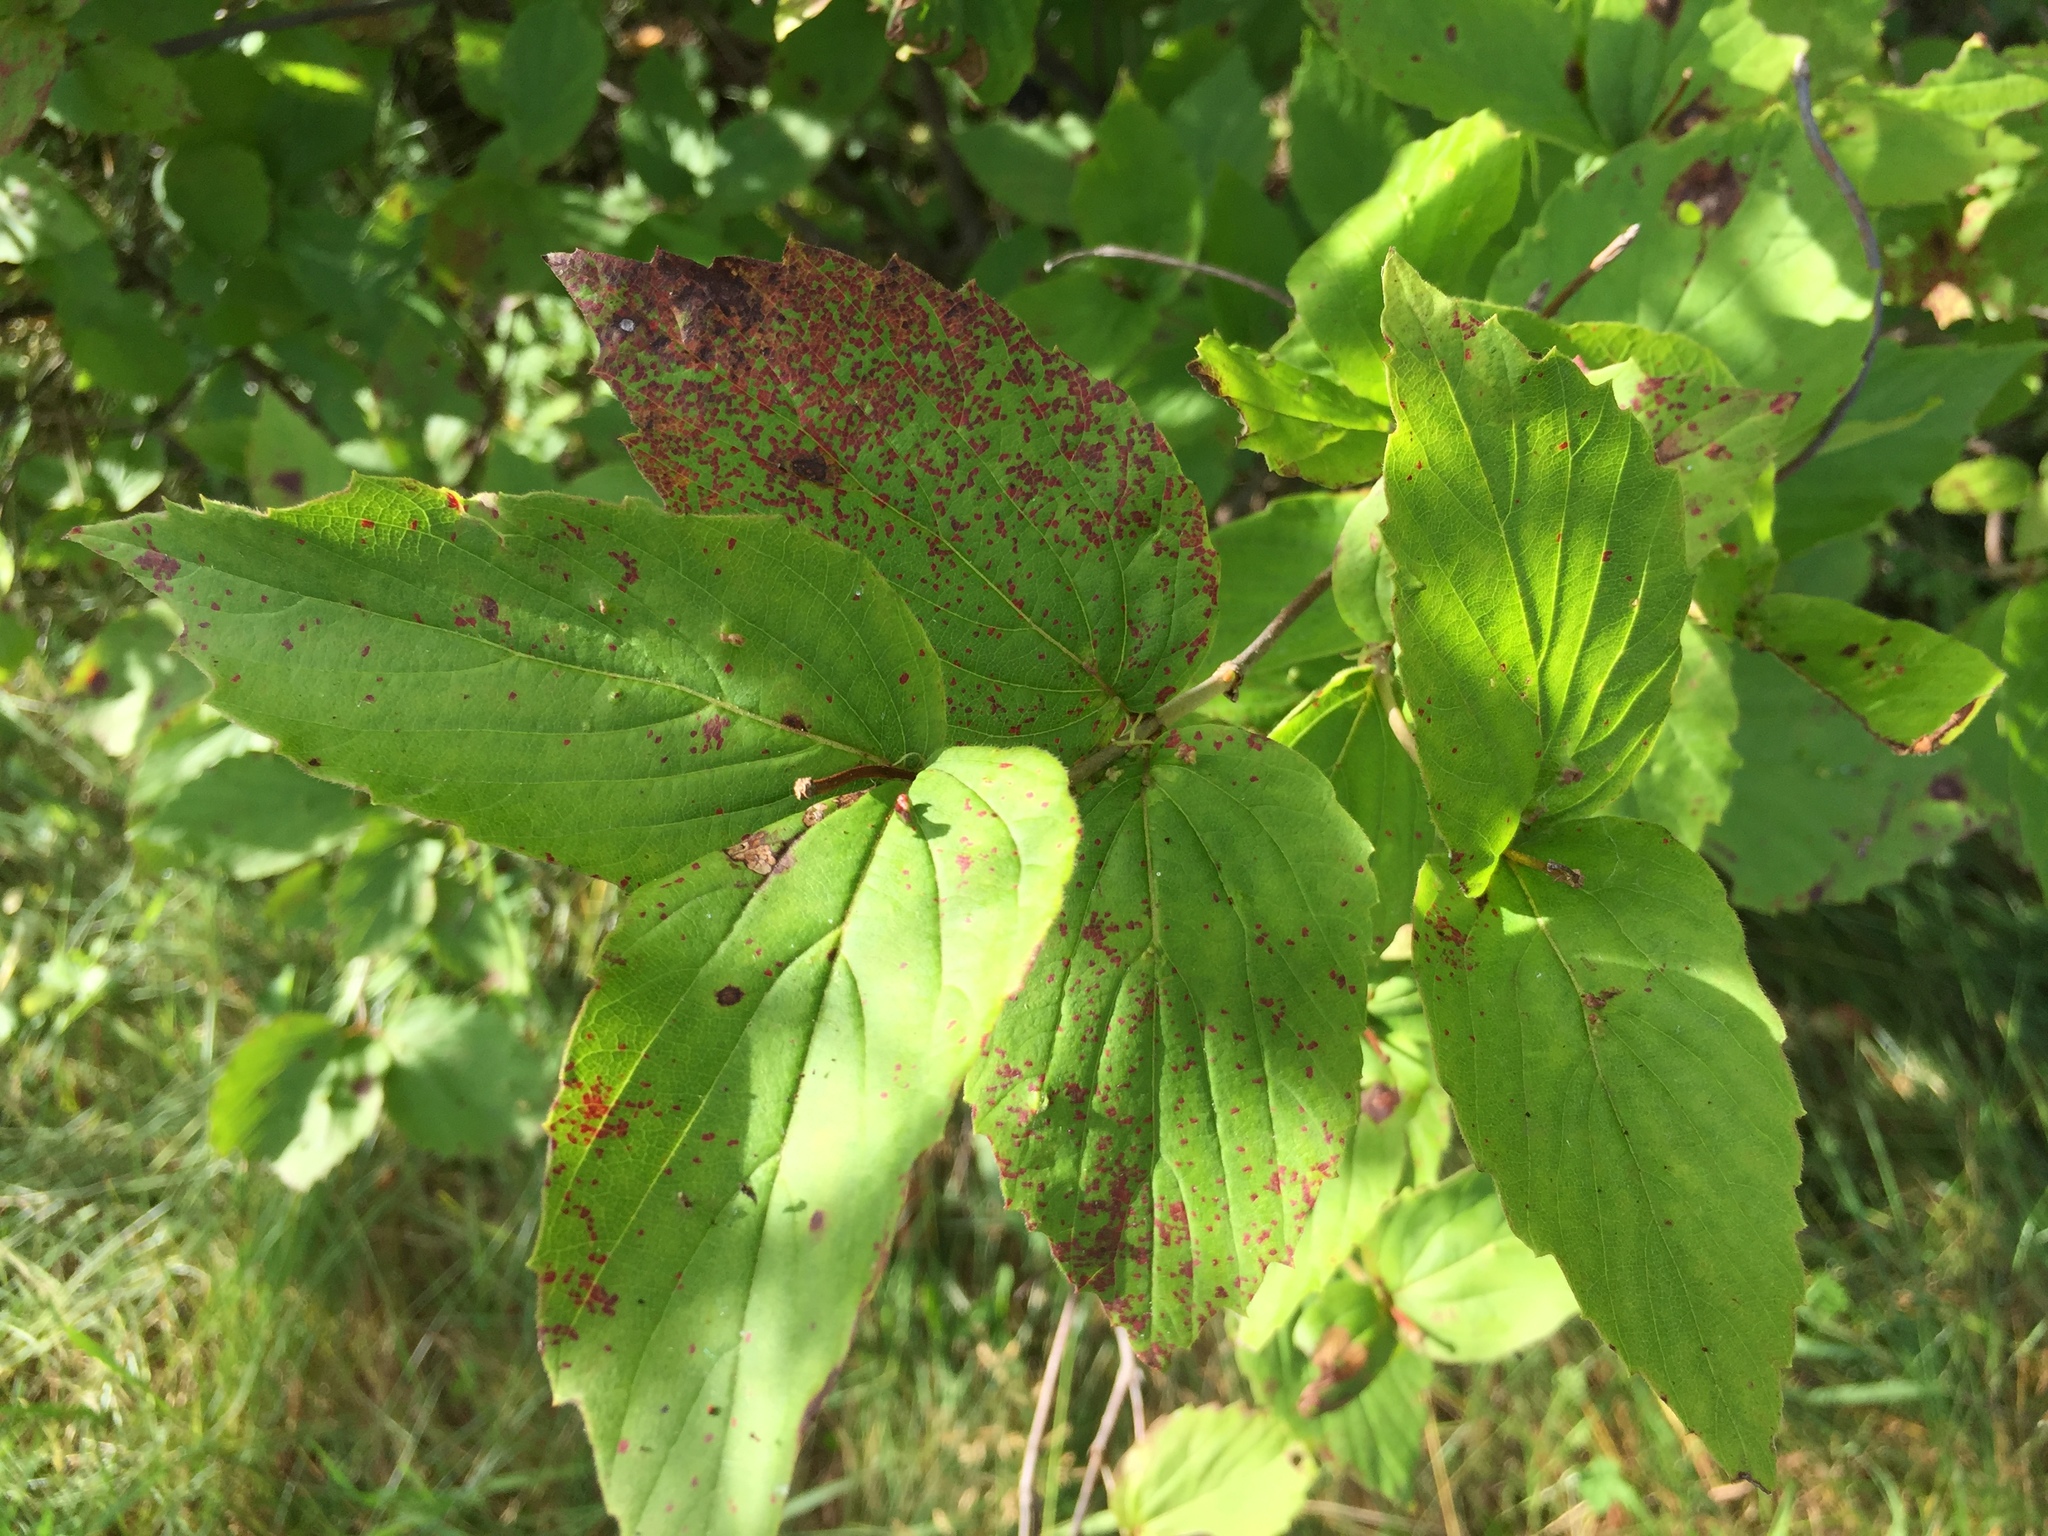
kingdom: Plantae
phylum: Tracheophyta
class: Magnoliopsida
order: Dipsacales
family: Viburnaceae
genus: Viburnum
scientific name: Viburnum rafinesqueanum
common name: Downy arrow-wood
